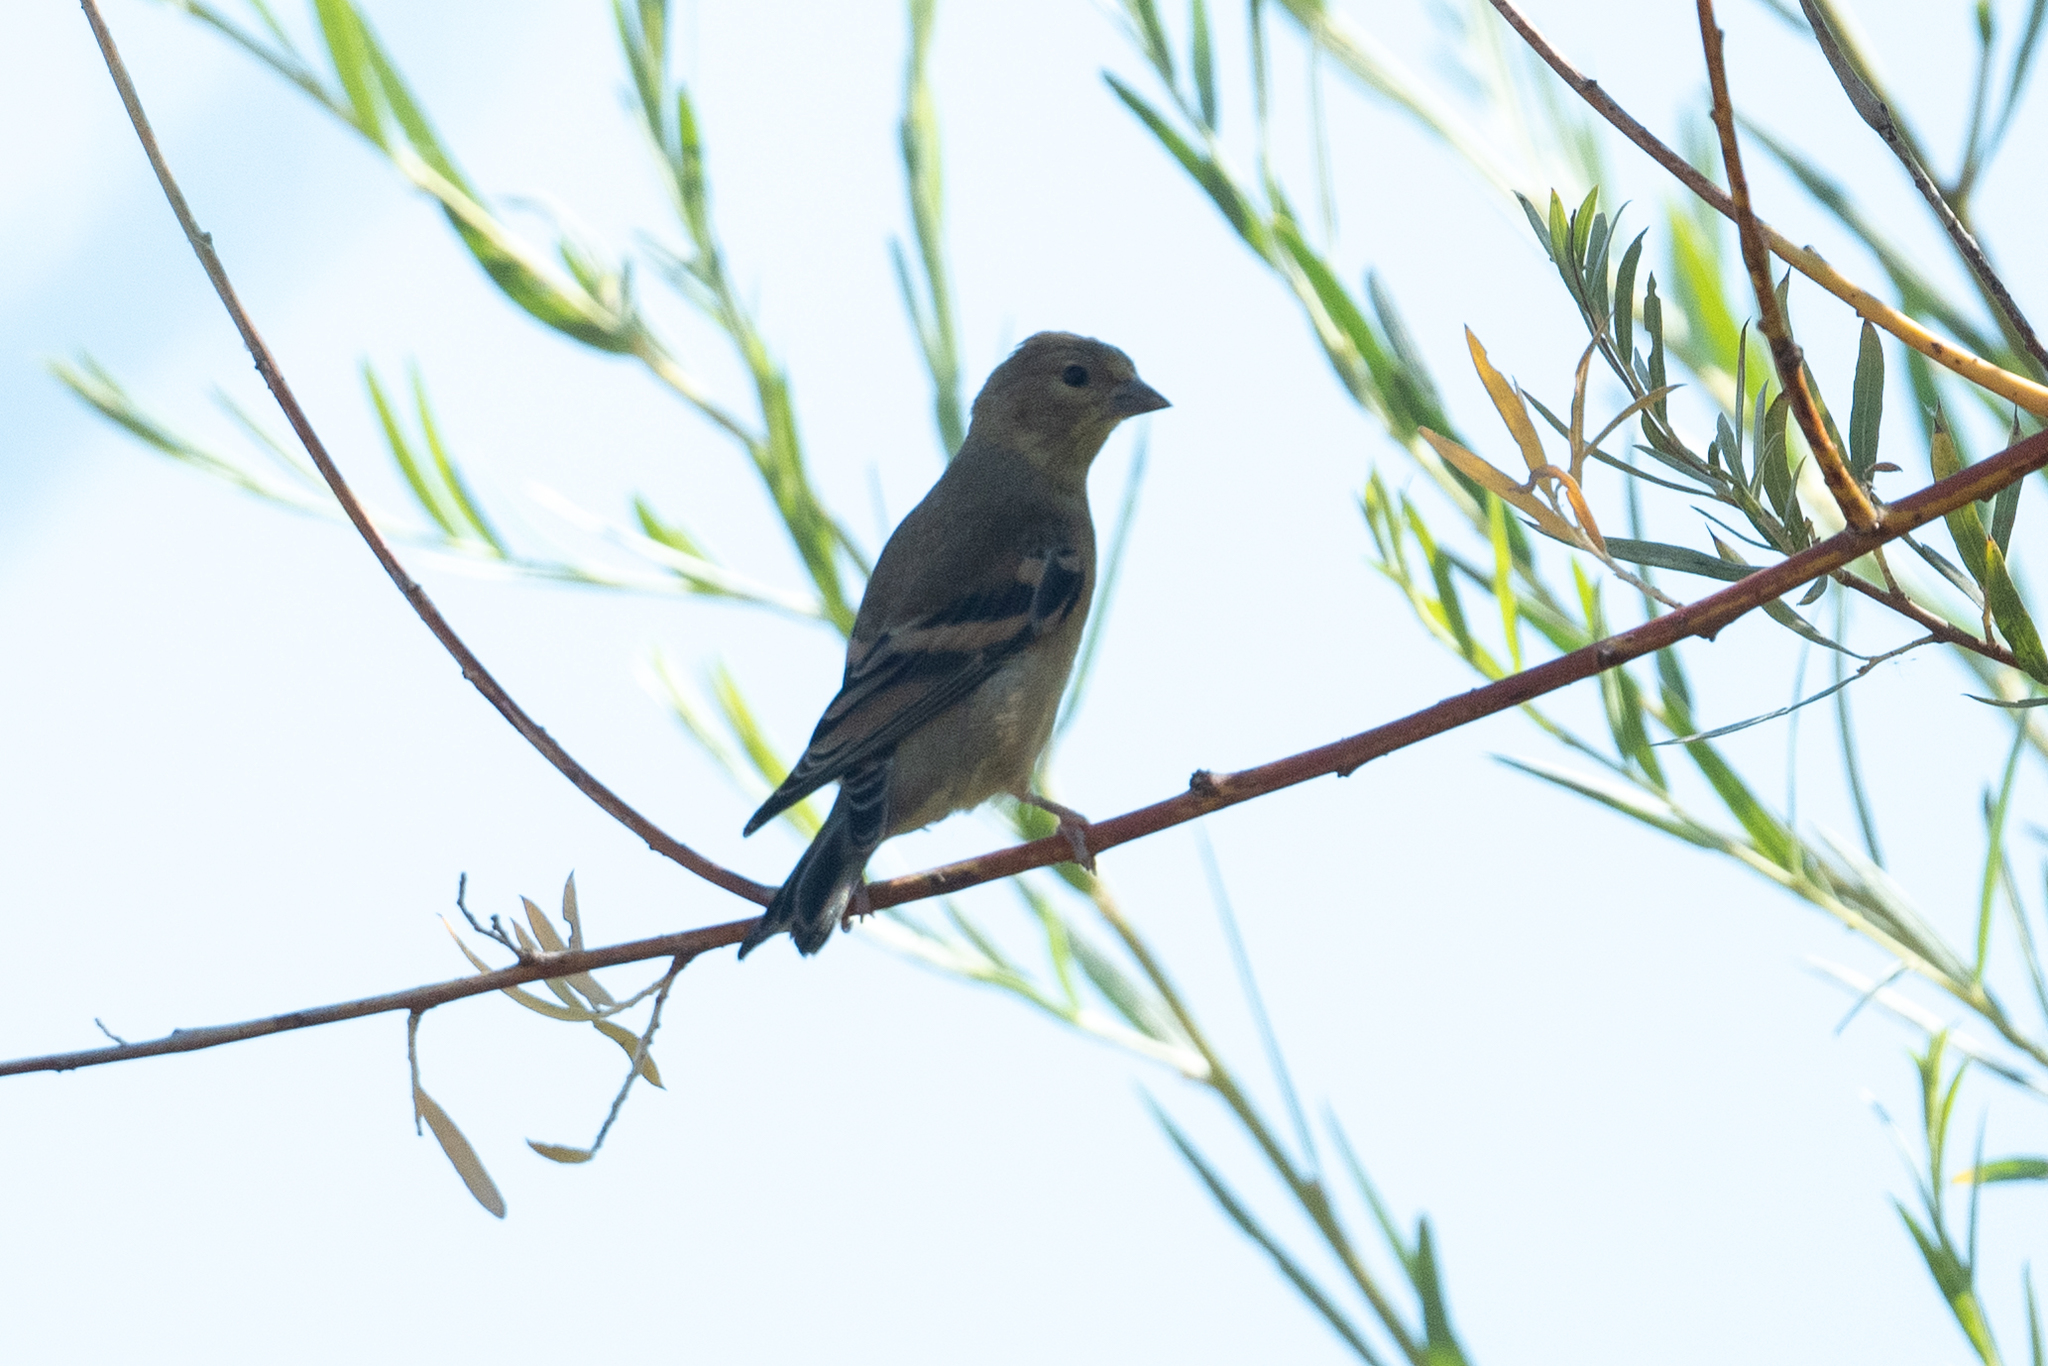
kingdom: Animalia
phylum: Chordata
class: Aves
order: Passeriformes
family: Fringillidae
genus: Spinus
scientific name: Spinus tristis
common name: American goldfinch
